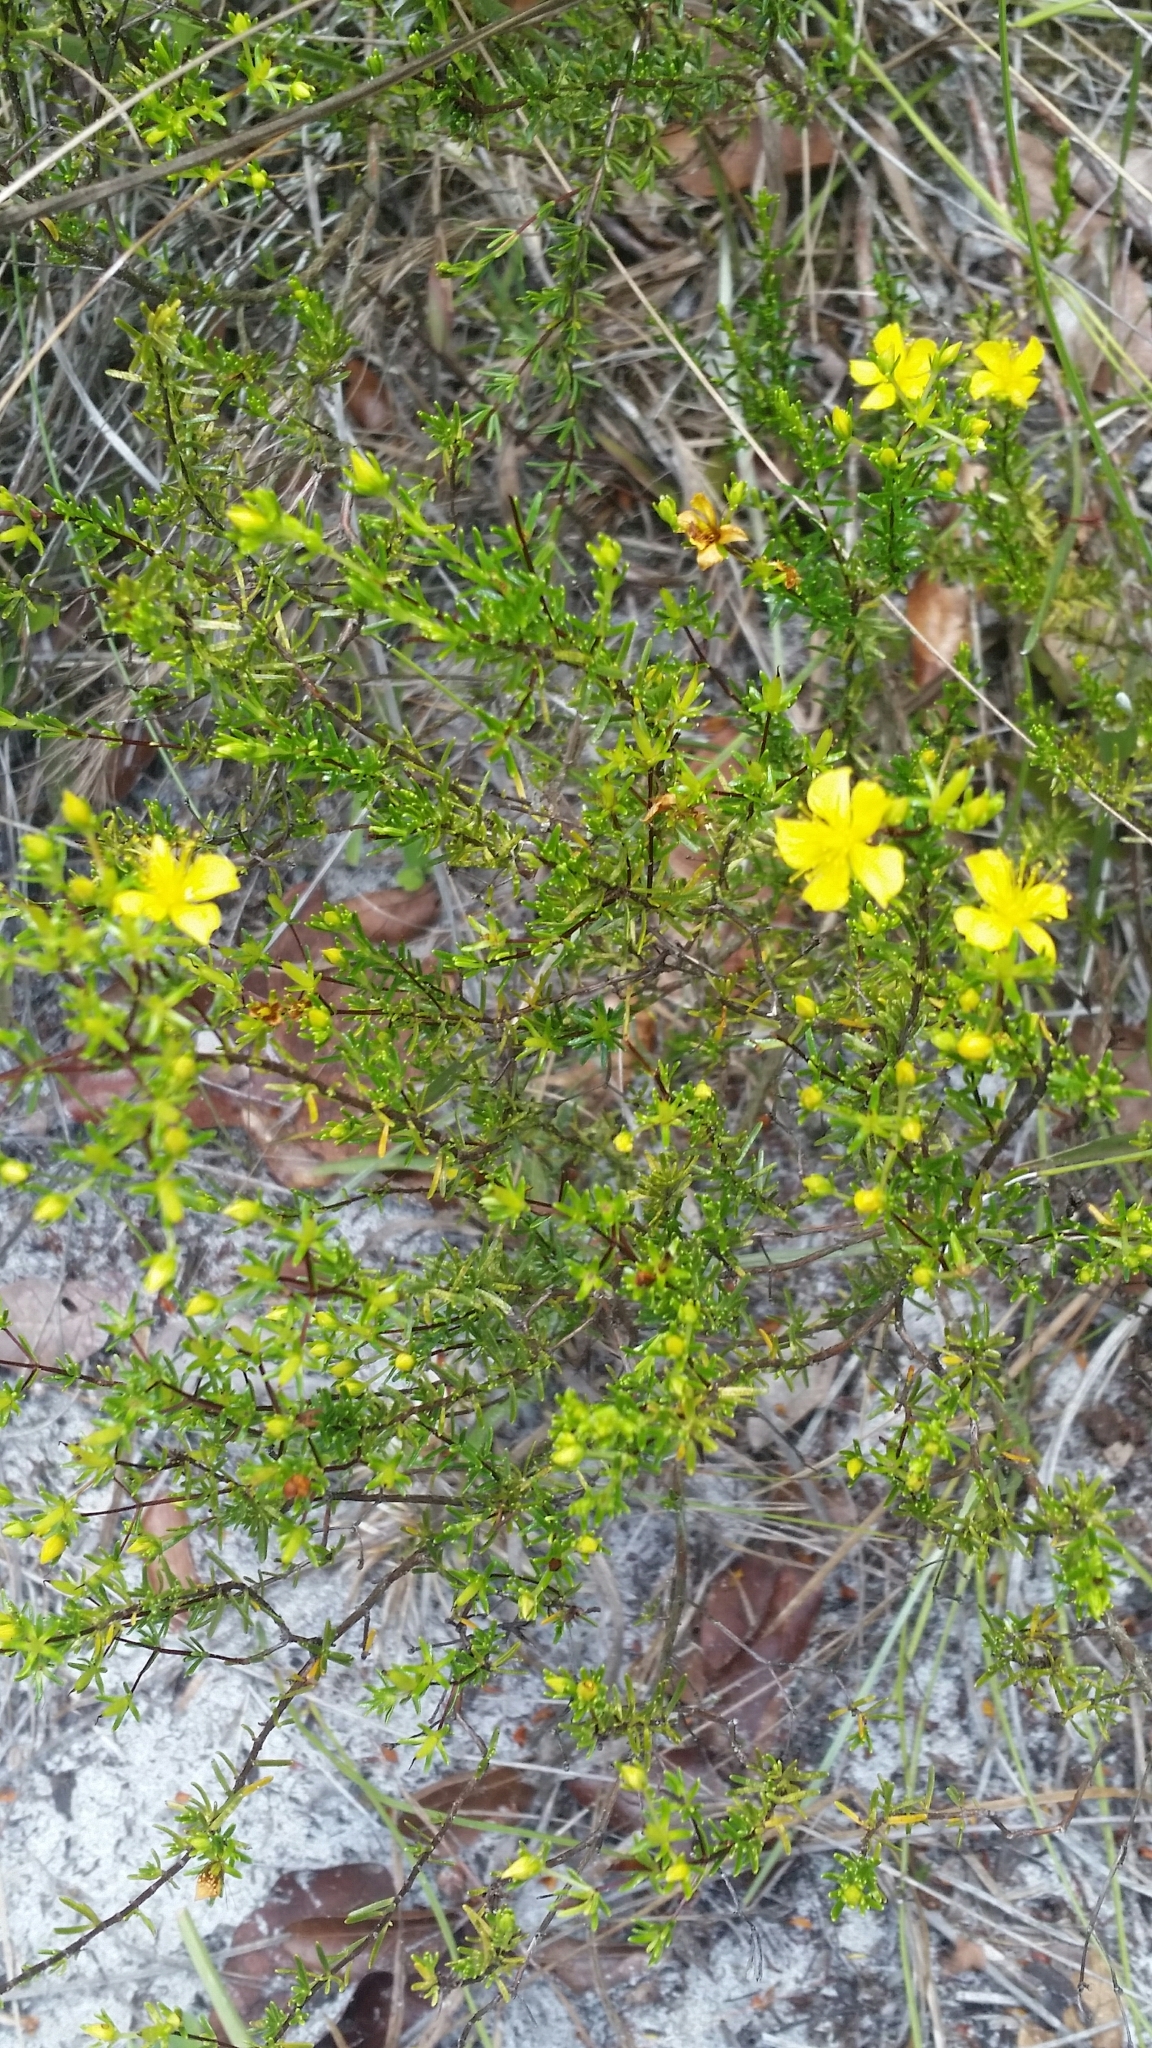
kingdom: Plantae
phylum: Tracheophyta
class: Magnoliopsida
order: Malpighiales
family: Hypericaceae
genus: Hypericum
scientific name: Hypericum tenuifolium
